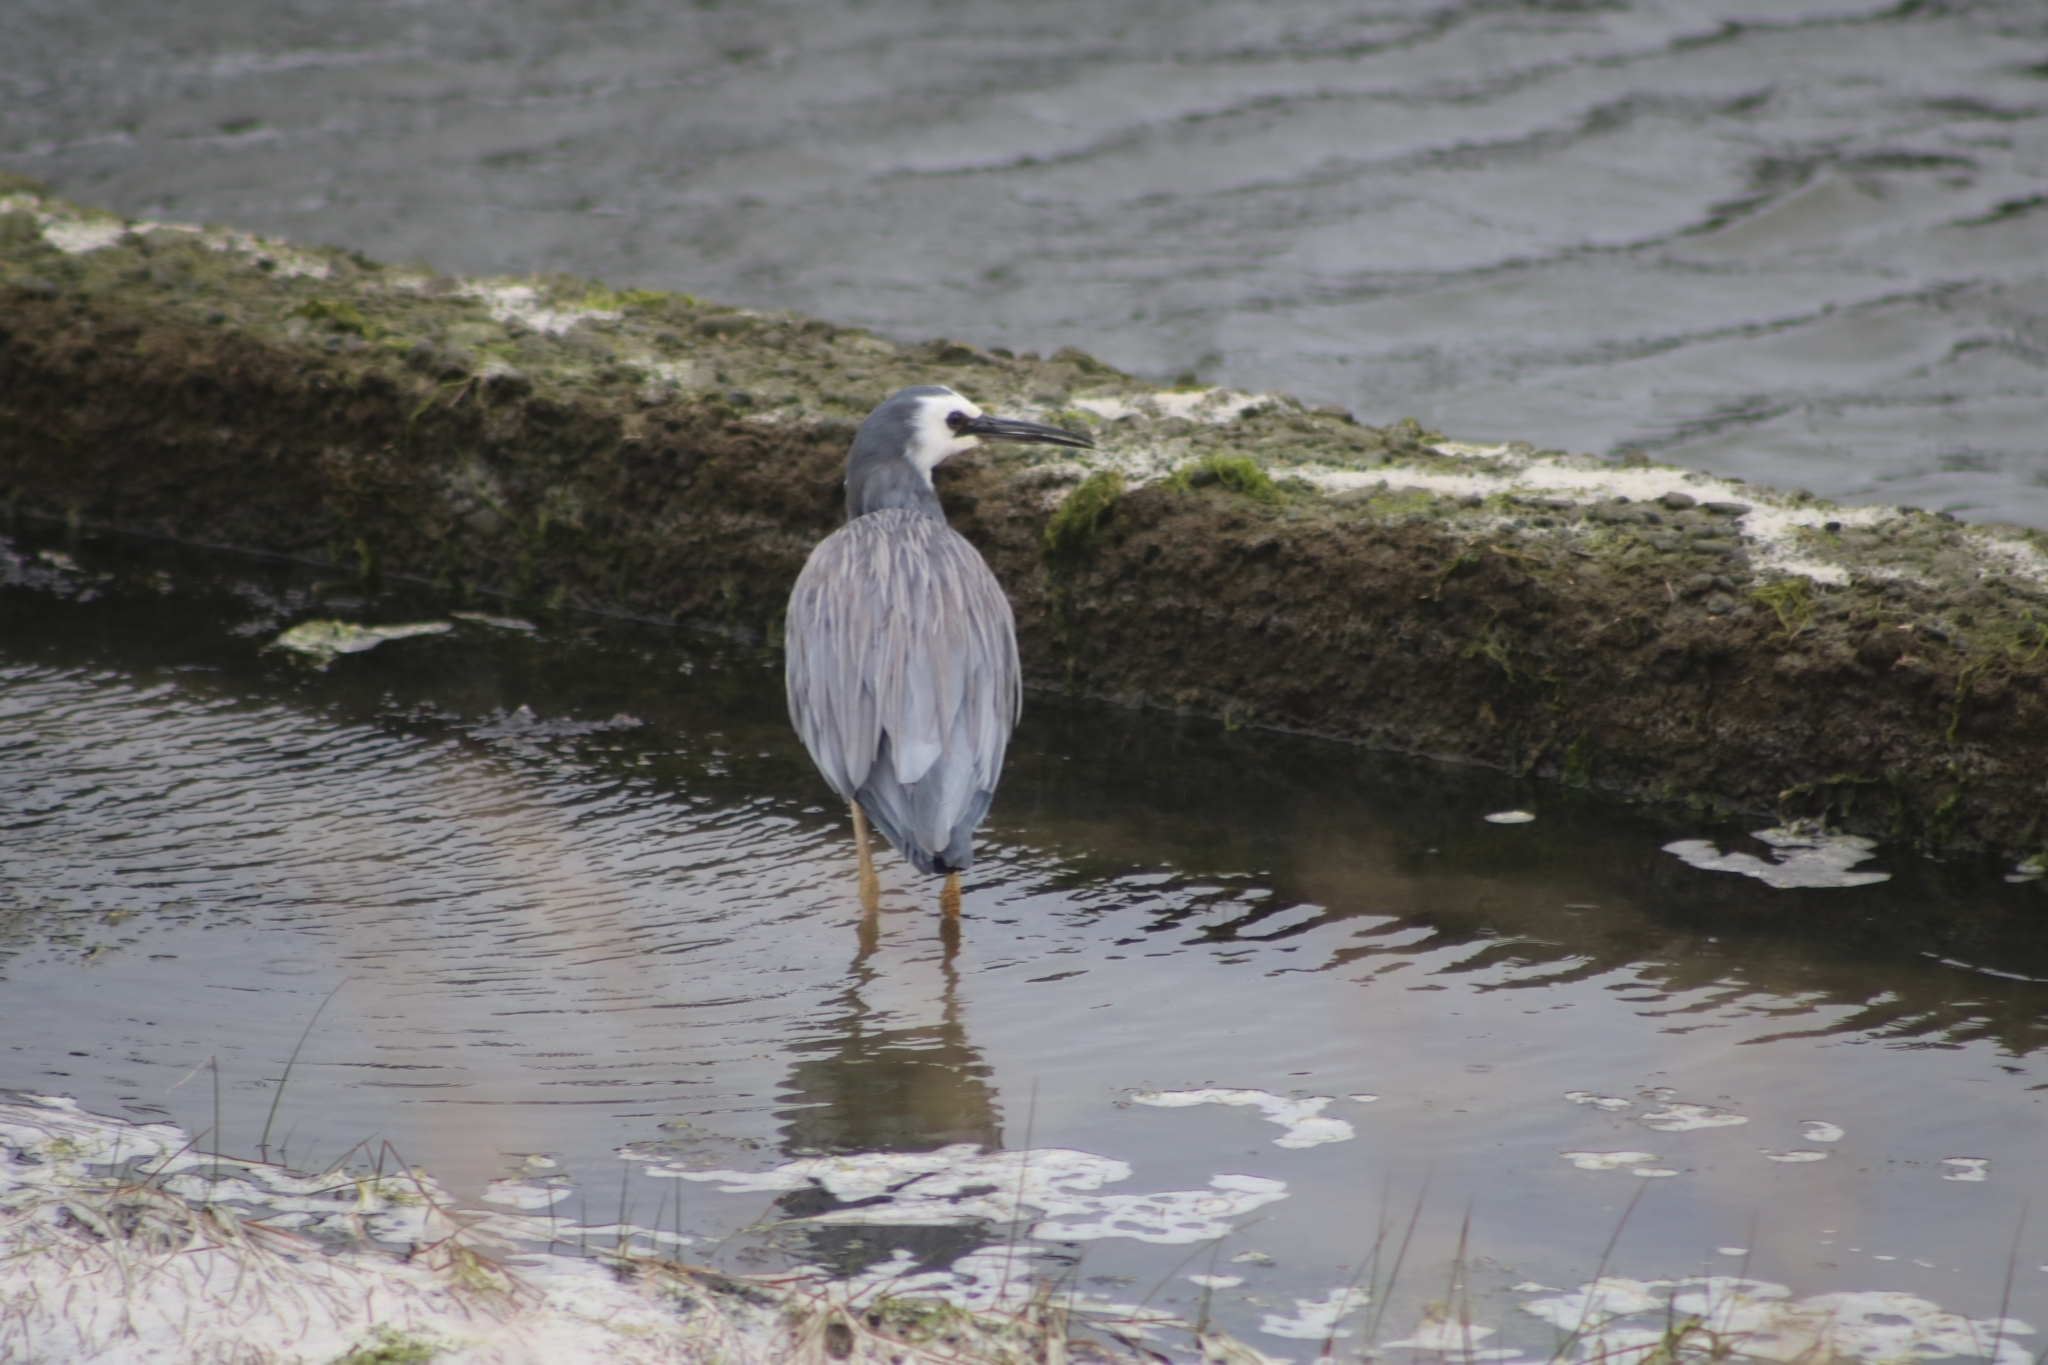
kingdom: Animalia
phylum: Chordata
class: Aves
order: Pelecaniformes
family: Ardeidae
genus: Egretta
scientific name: Egretta novaehollandiae
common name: White-faced heron
